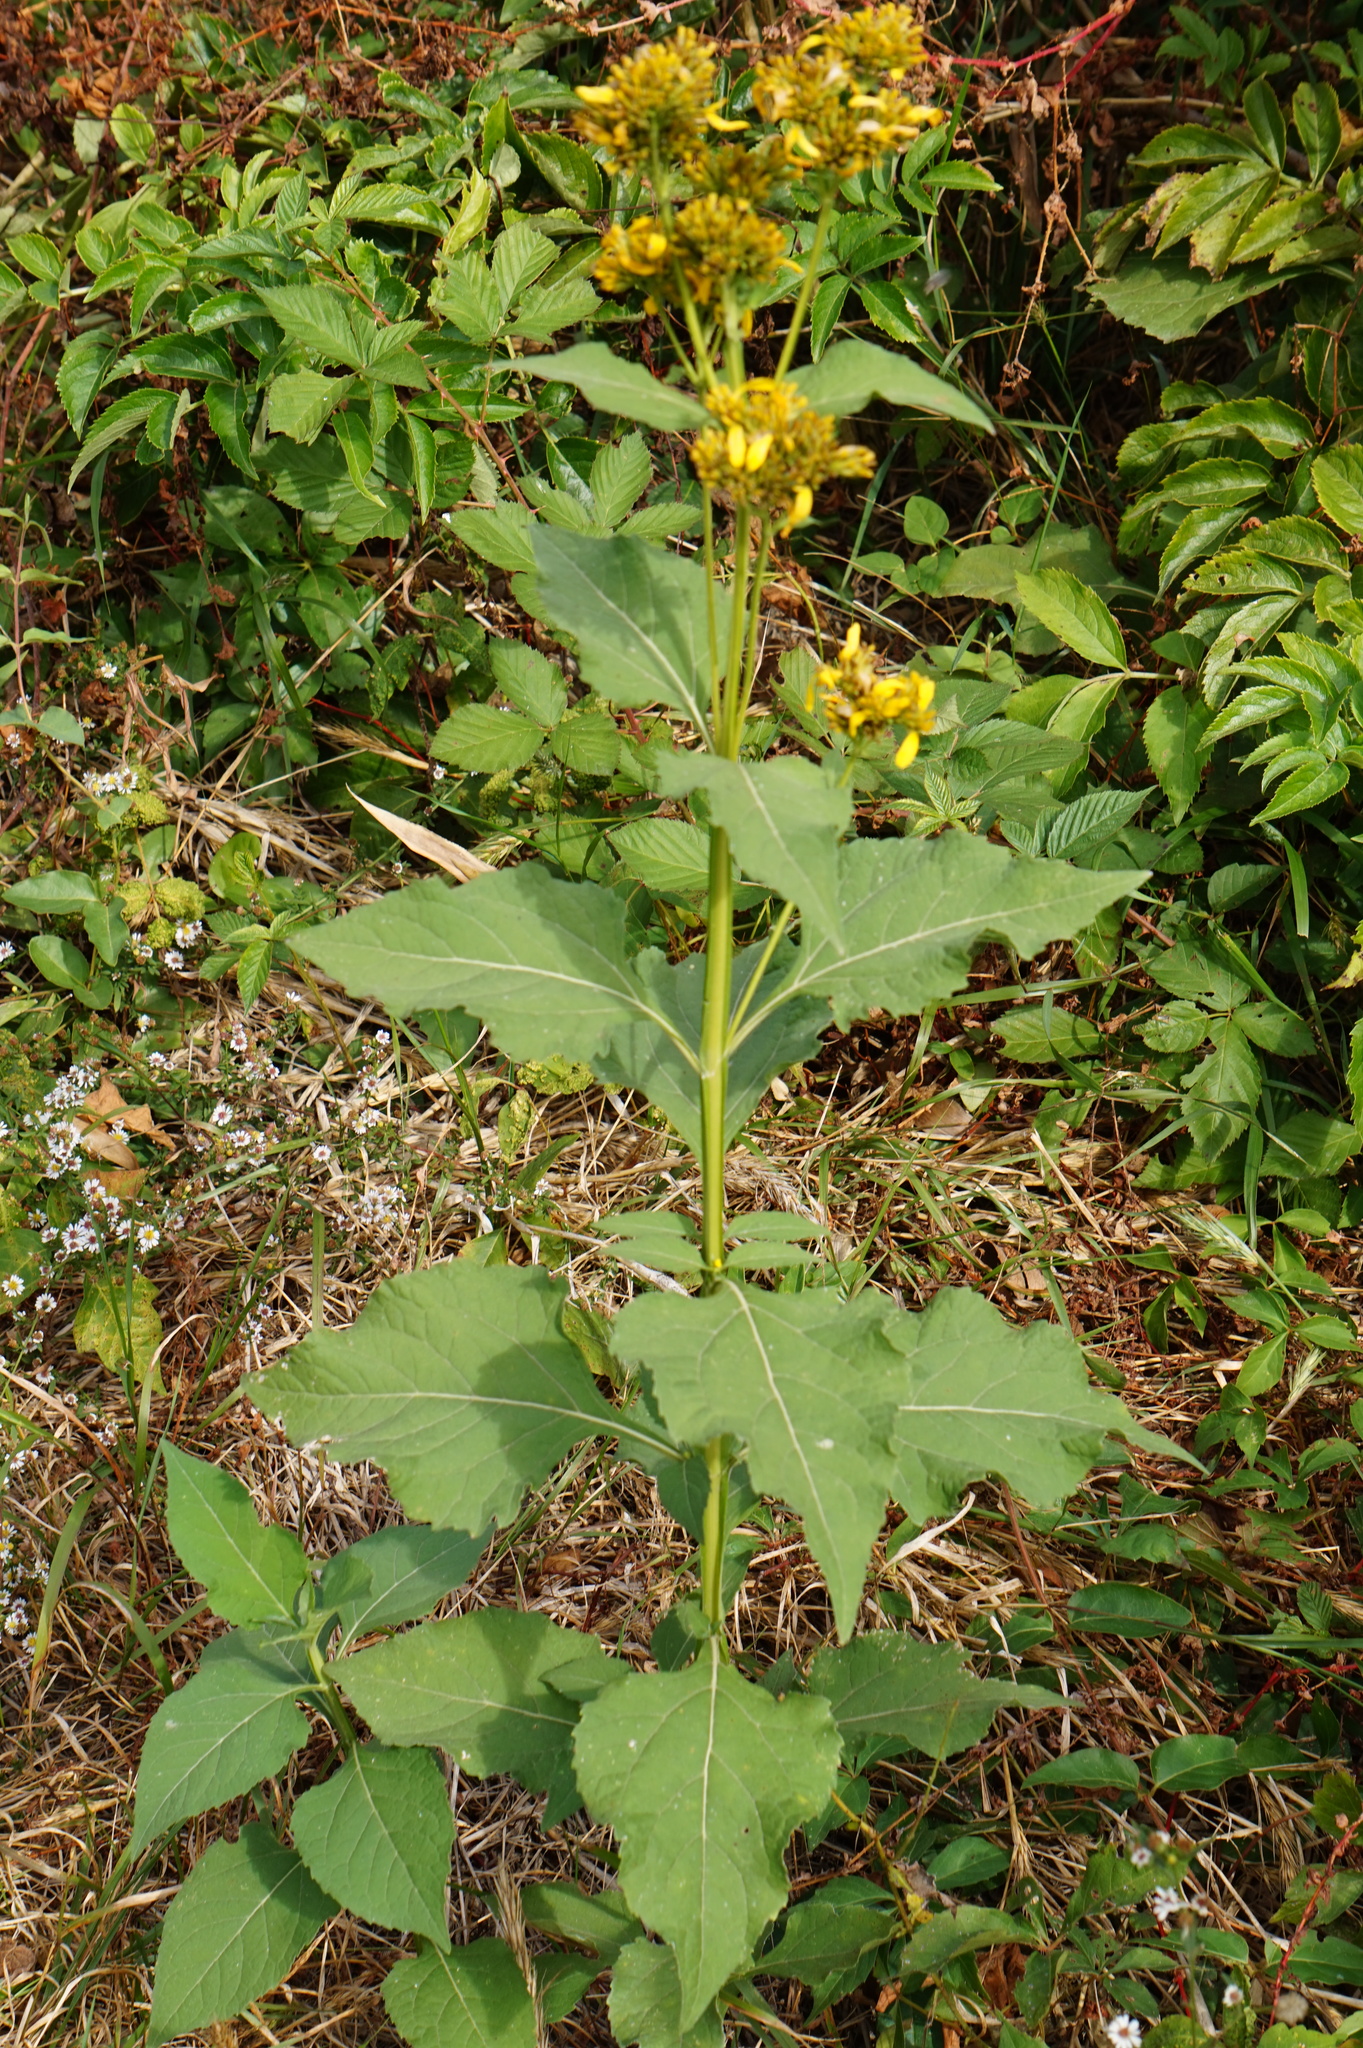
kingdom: Plantae
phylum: Tracheophyta
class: Magnoliopsida
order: Asterales
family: Asteraceae
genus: Verbesina
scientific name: Verbesina occidentalis
